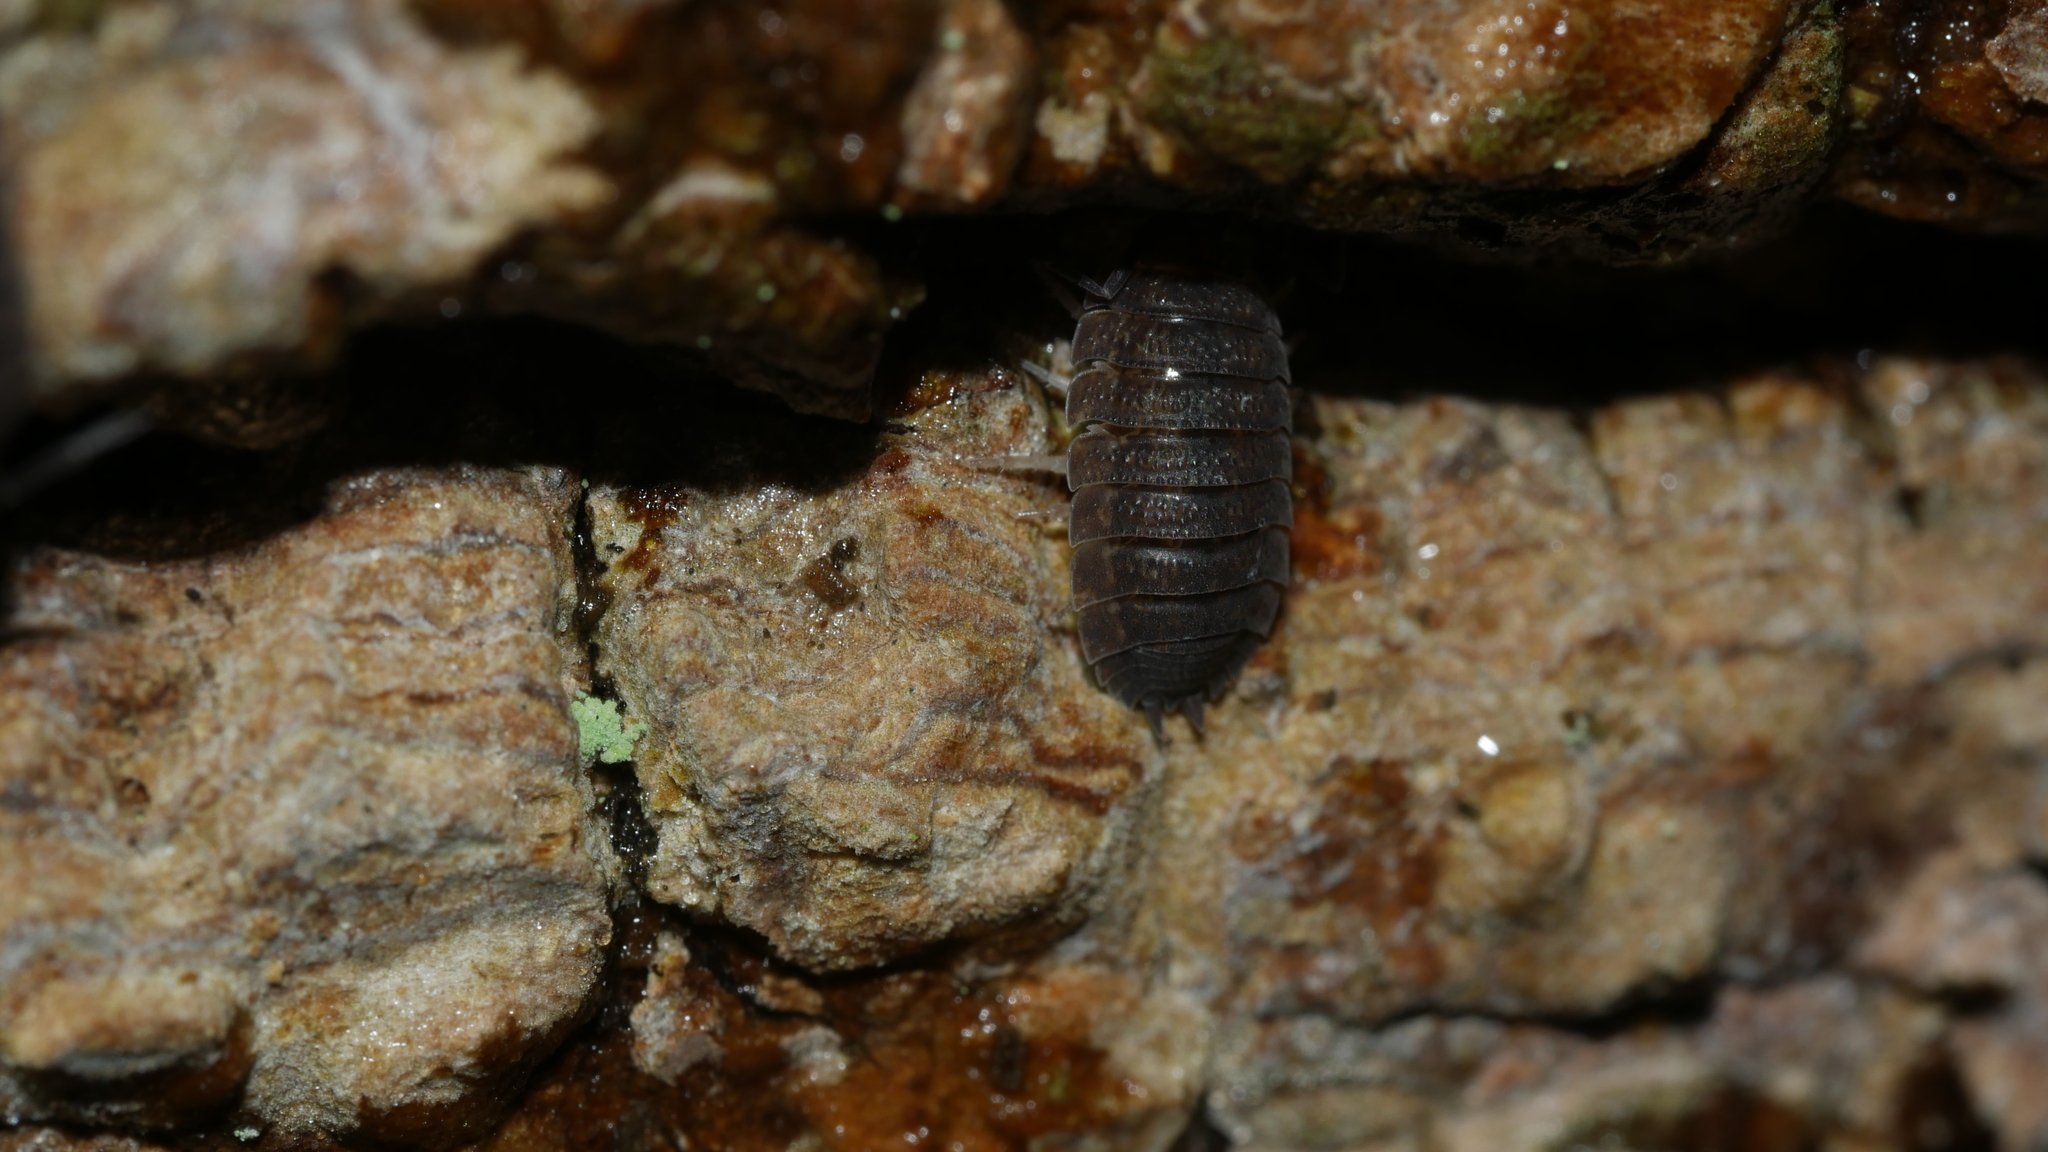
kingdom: Animalia
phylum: Arthropoda
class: Malacostraca
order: Isopoda
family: Porcellionidae
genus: Porcellio
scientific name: Porcellio scaber
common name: Common rough woodlouse
